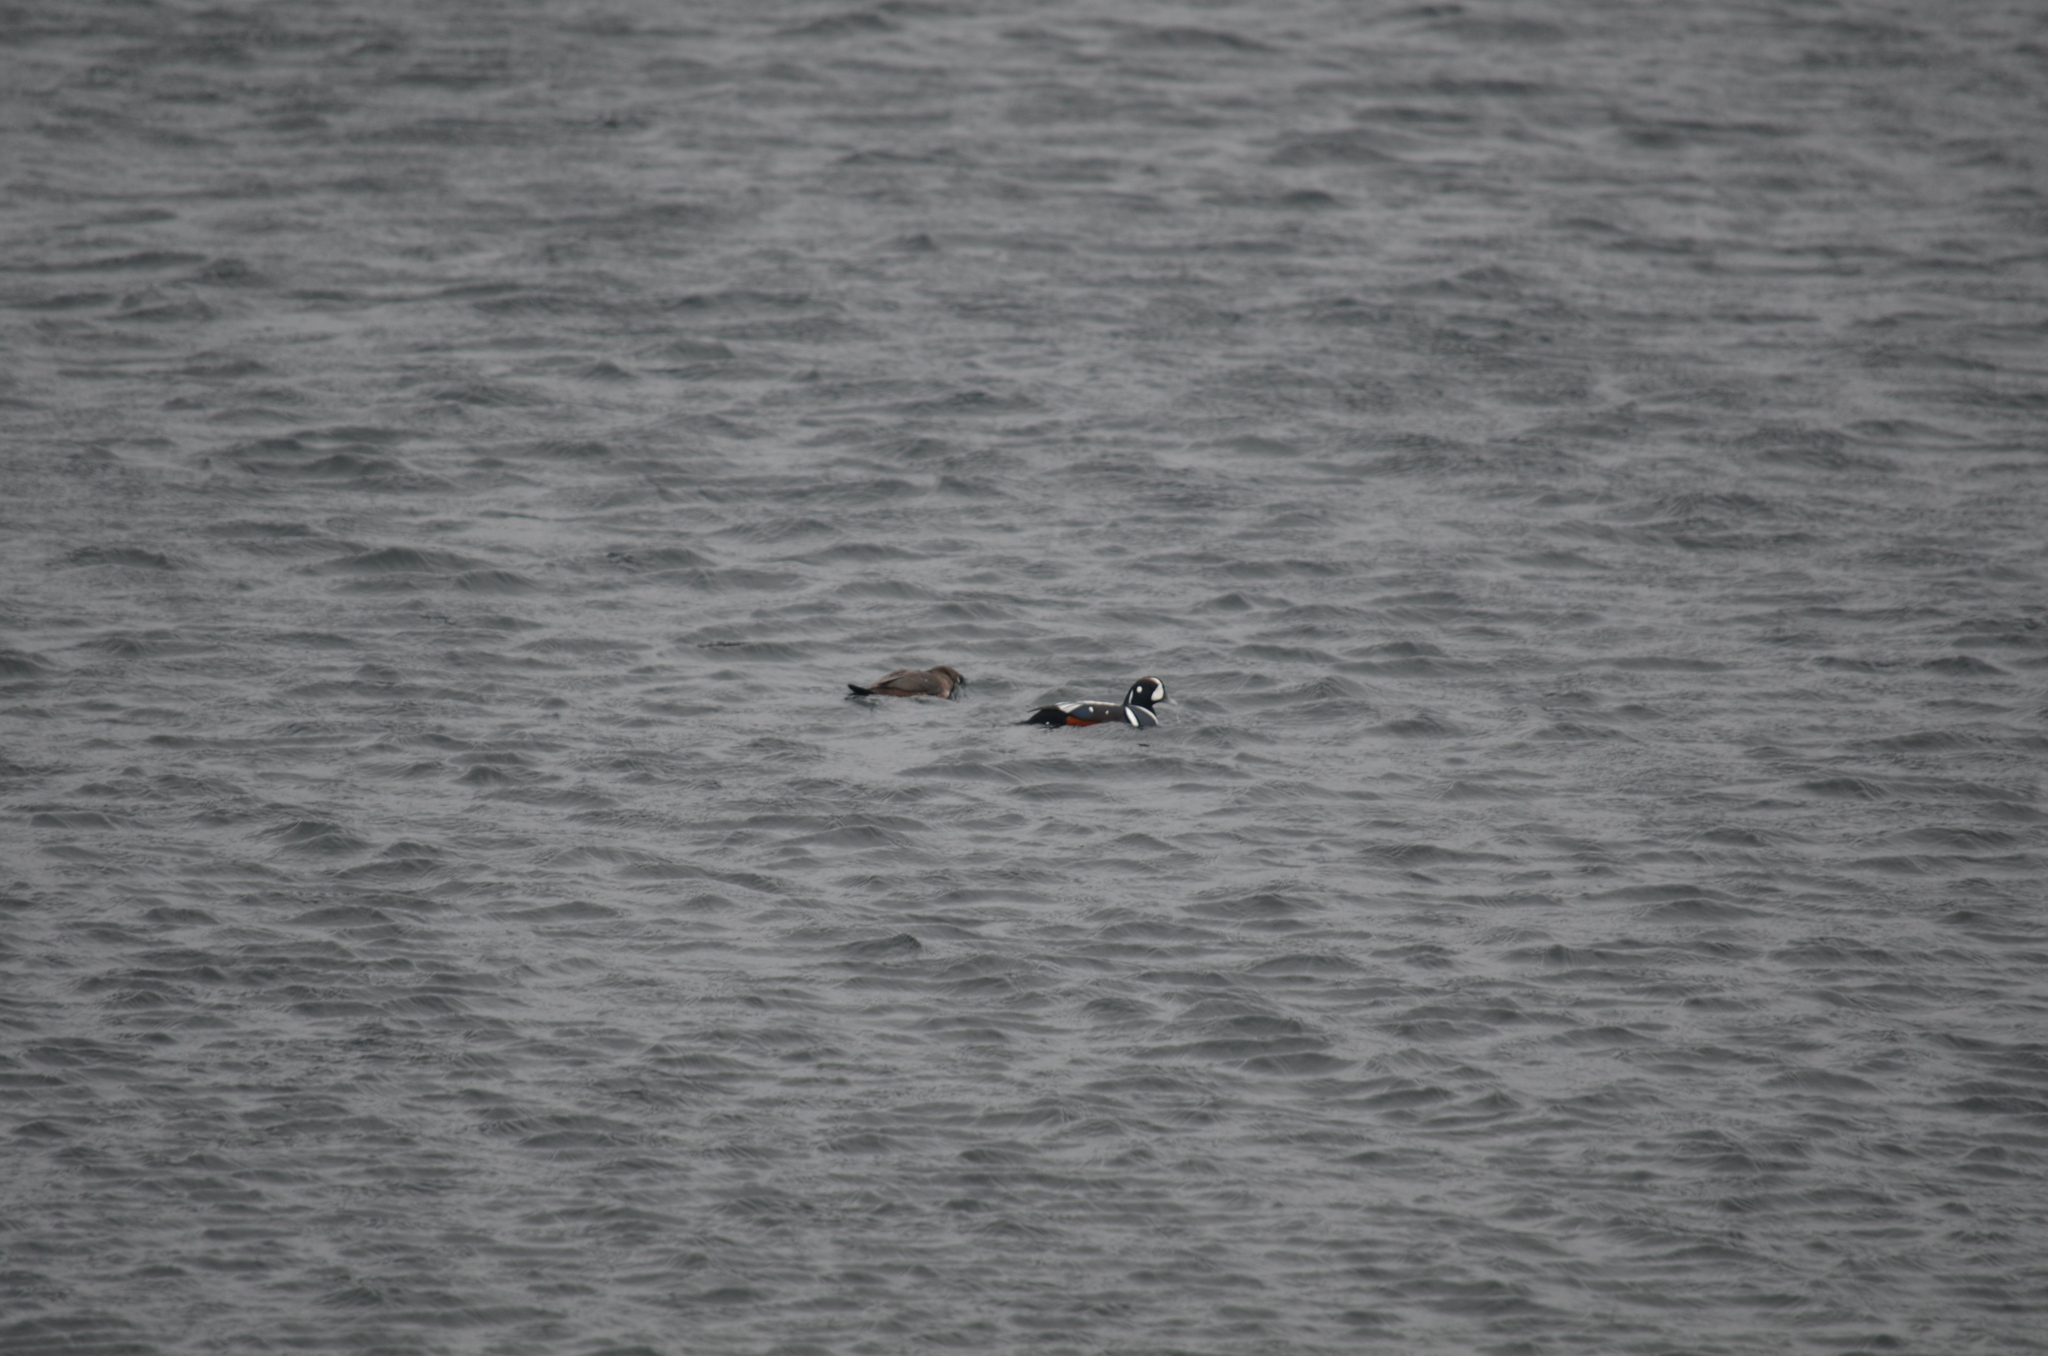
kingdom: Animalia
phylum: Chordata
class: Aves
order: Anseriformes
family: Anatidae
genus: Histrionicus
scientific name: Histrionicus histrionicus
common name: Harlequin duck
